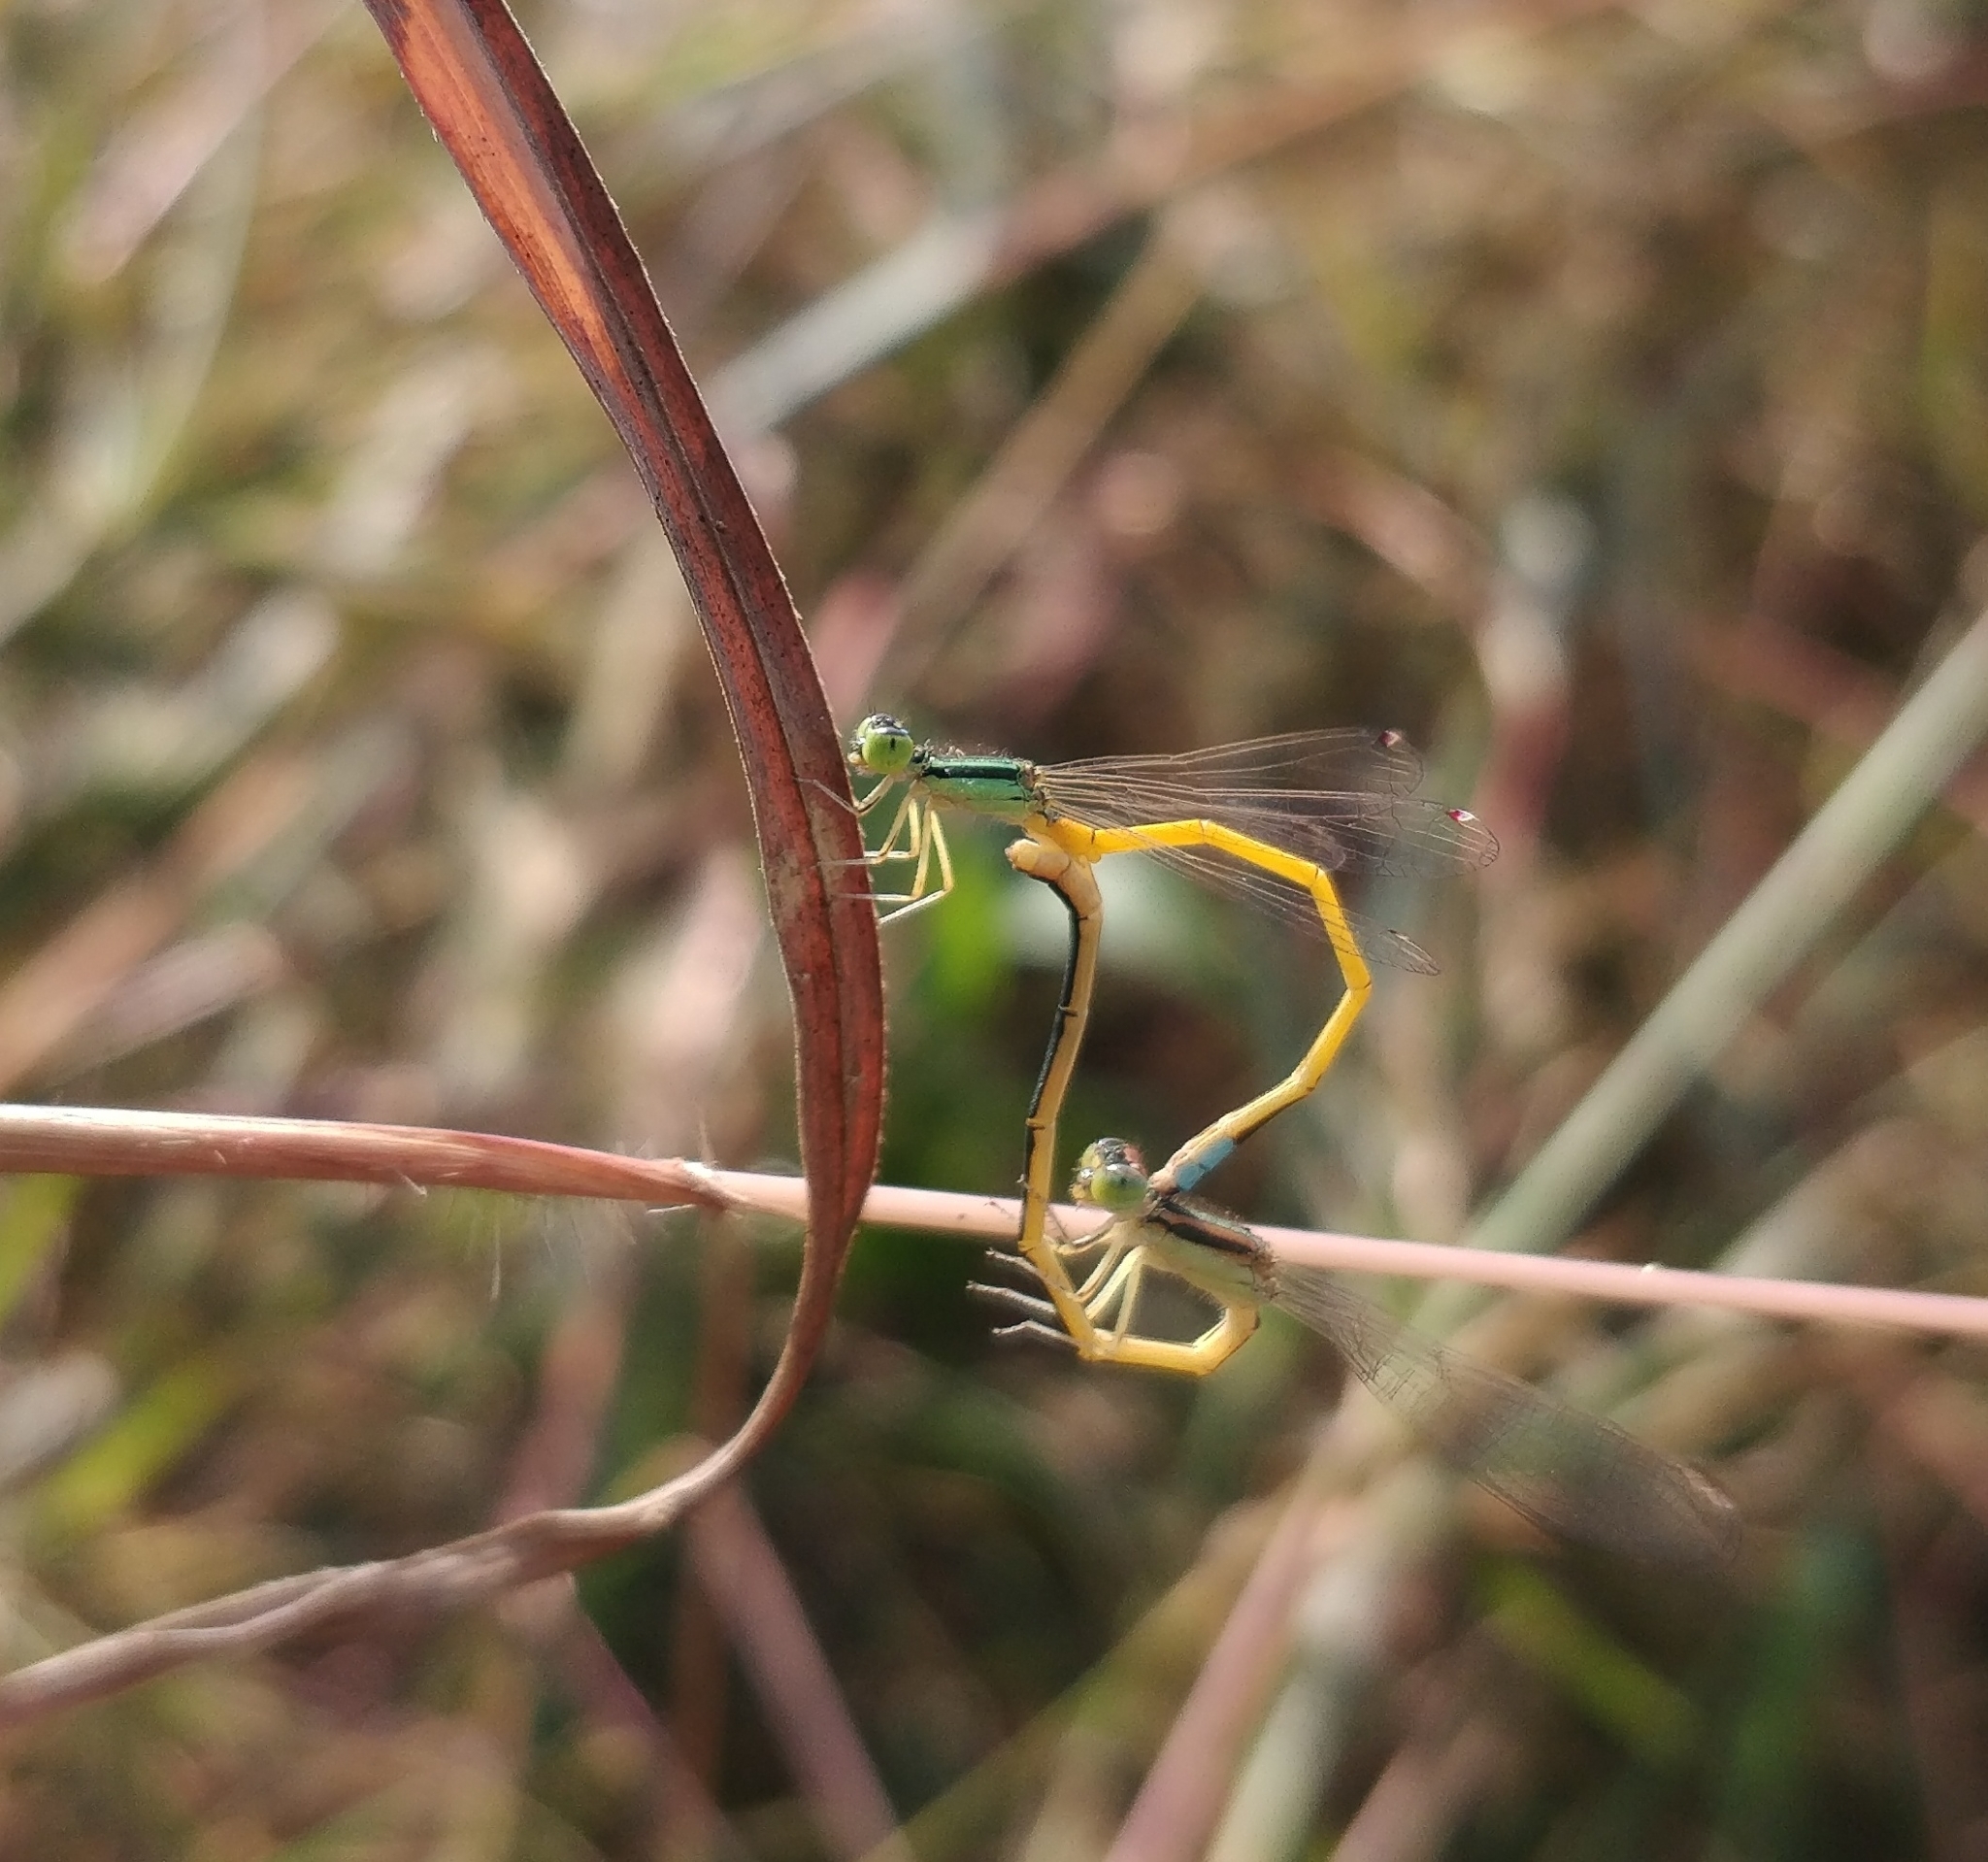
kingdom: Animalia
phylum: Arthropoda
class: Insecta
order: Odonata
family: Coenagrionidae
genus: Ischnura
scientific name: Ischnura rubilio
